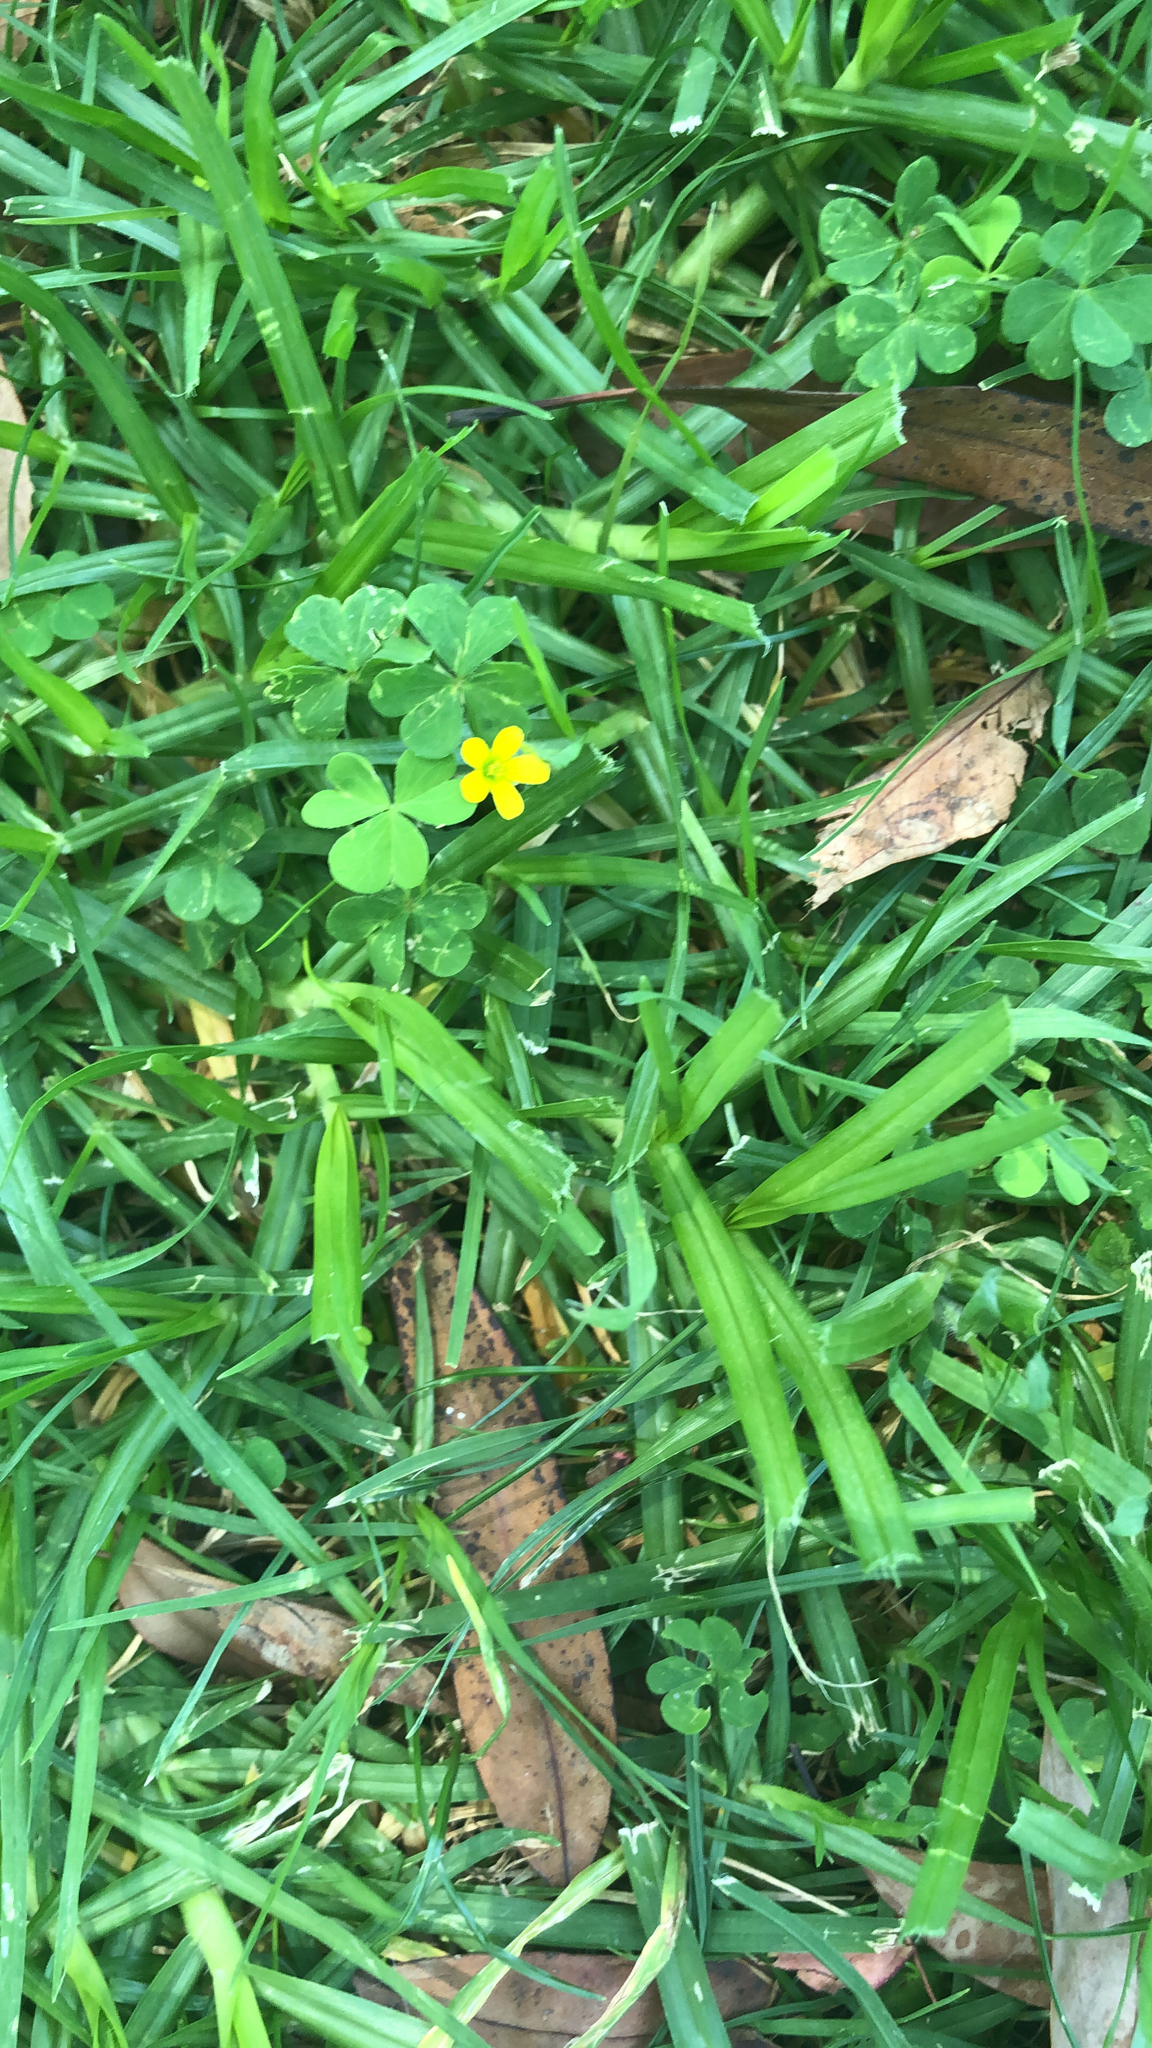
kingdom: Plantae
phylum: Tracheophyta
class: Magnoliopsida
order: Oxalidales
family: Oxalidaceae
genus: Oxalis
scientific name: Oxalis corniculata
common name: Procumbent yellow-sorrel
